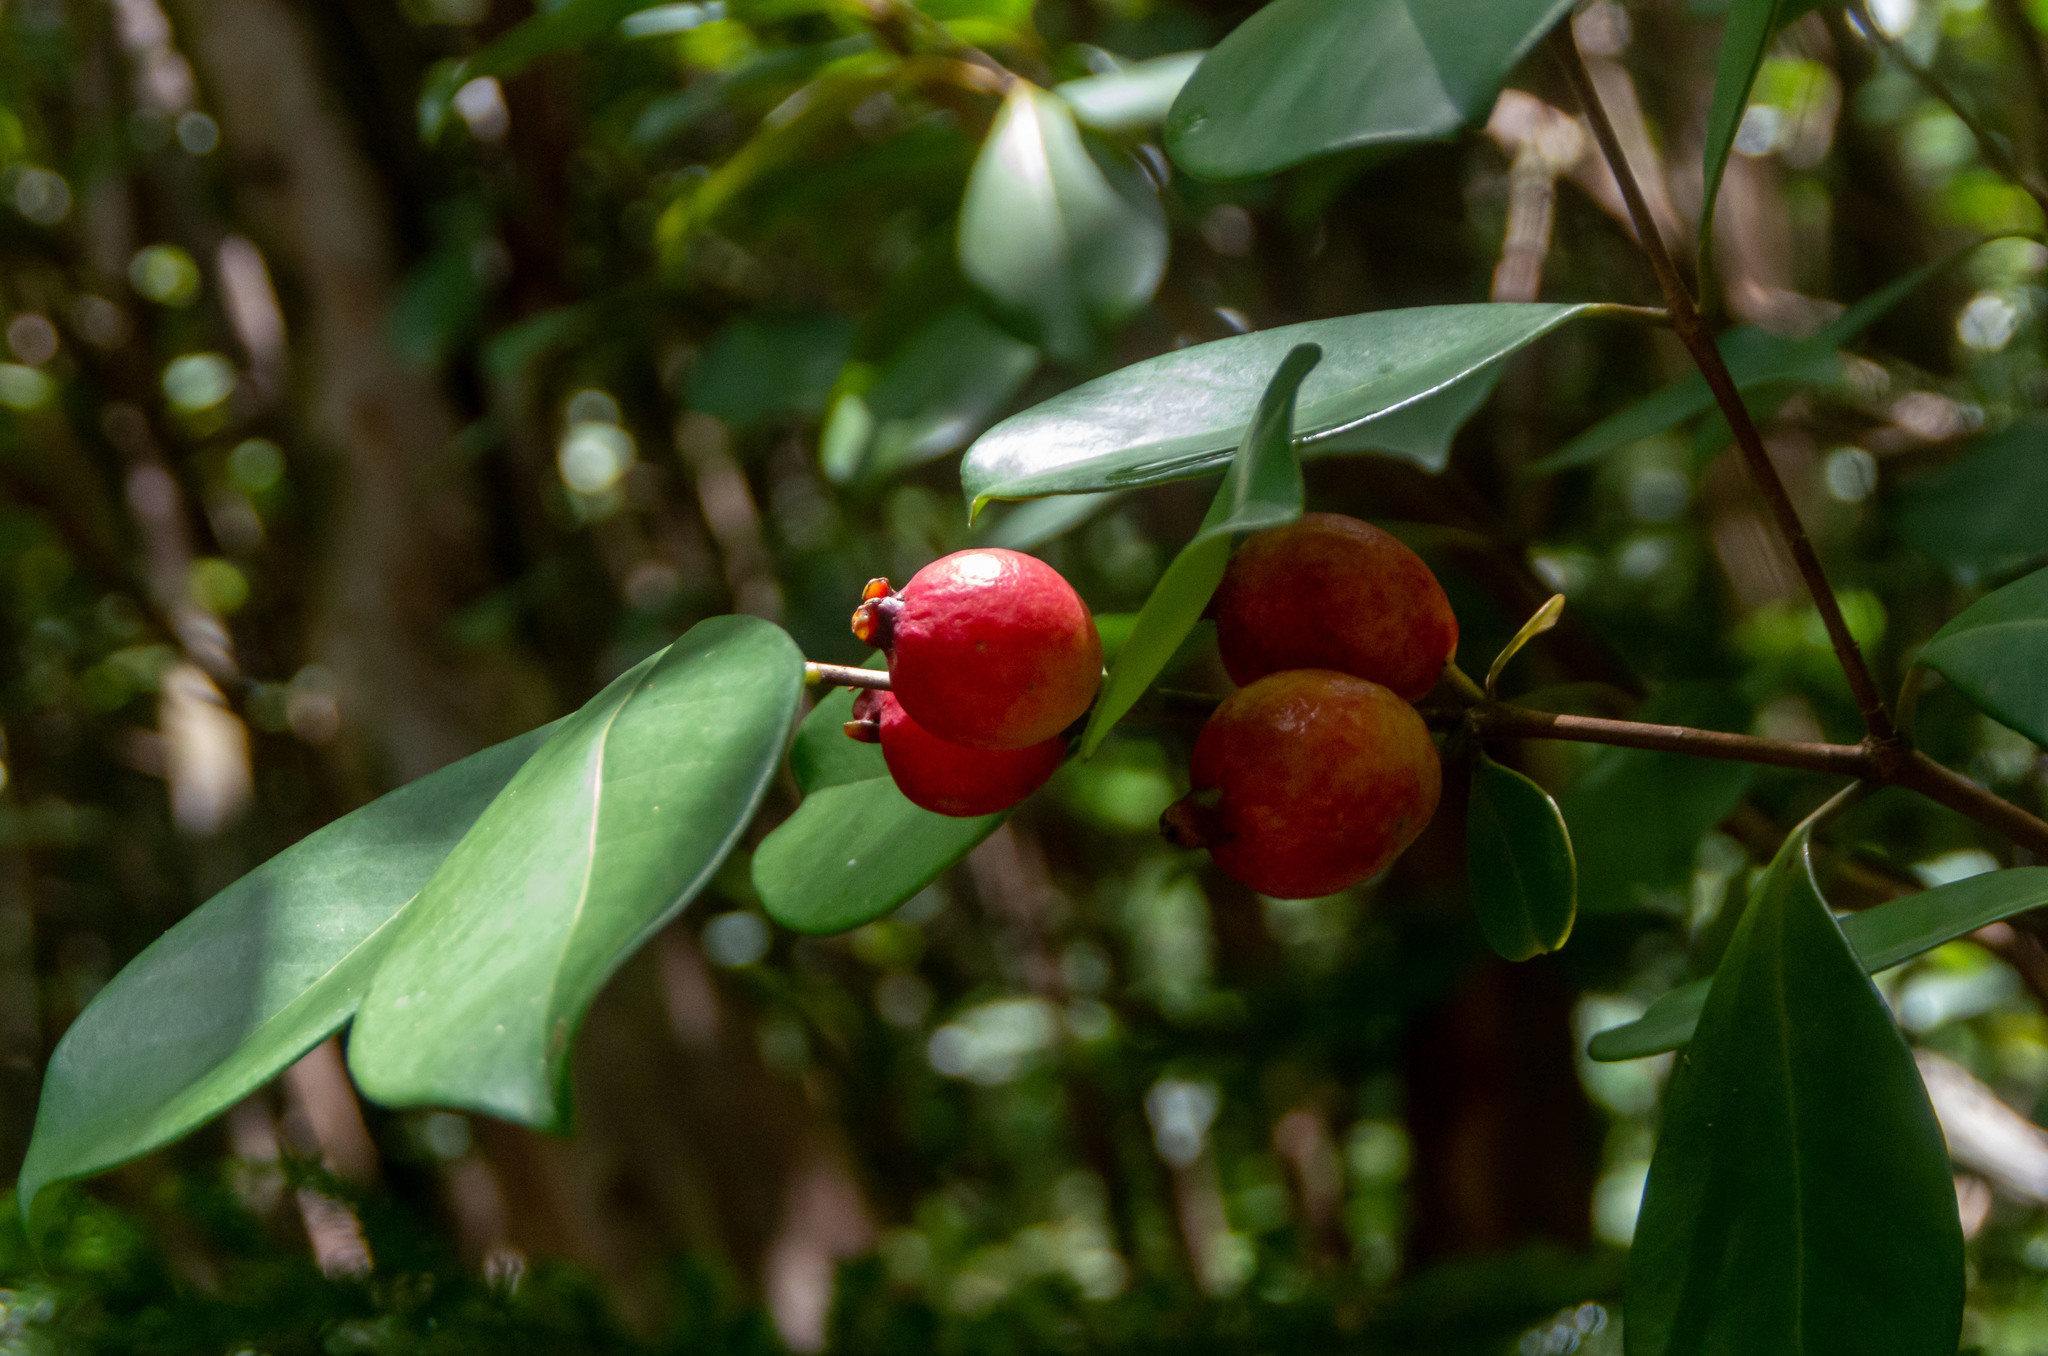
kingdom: Plantae
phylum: Tracheophyta
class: Magnoliopsida
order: Myrtales
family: Myrtaceae
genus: Psidium
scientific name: Psidium cattleianum
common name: Strawberry guava
